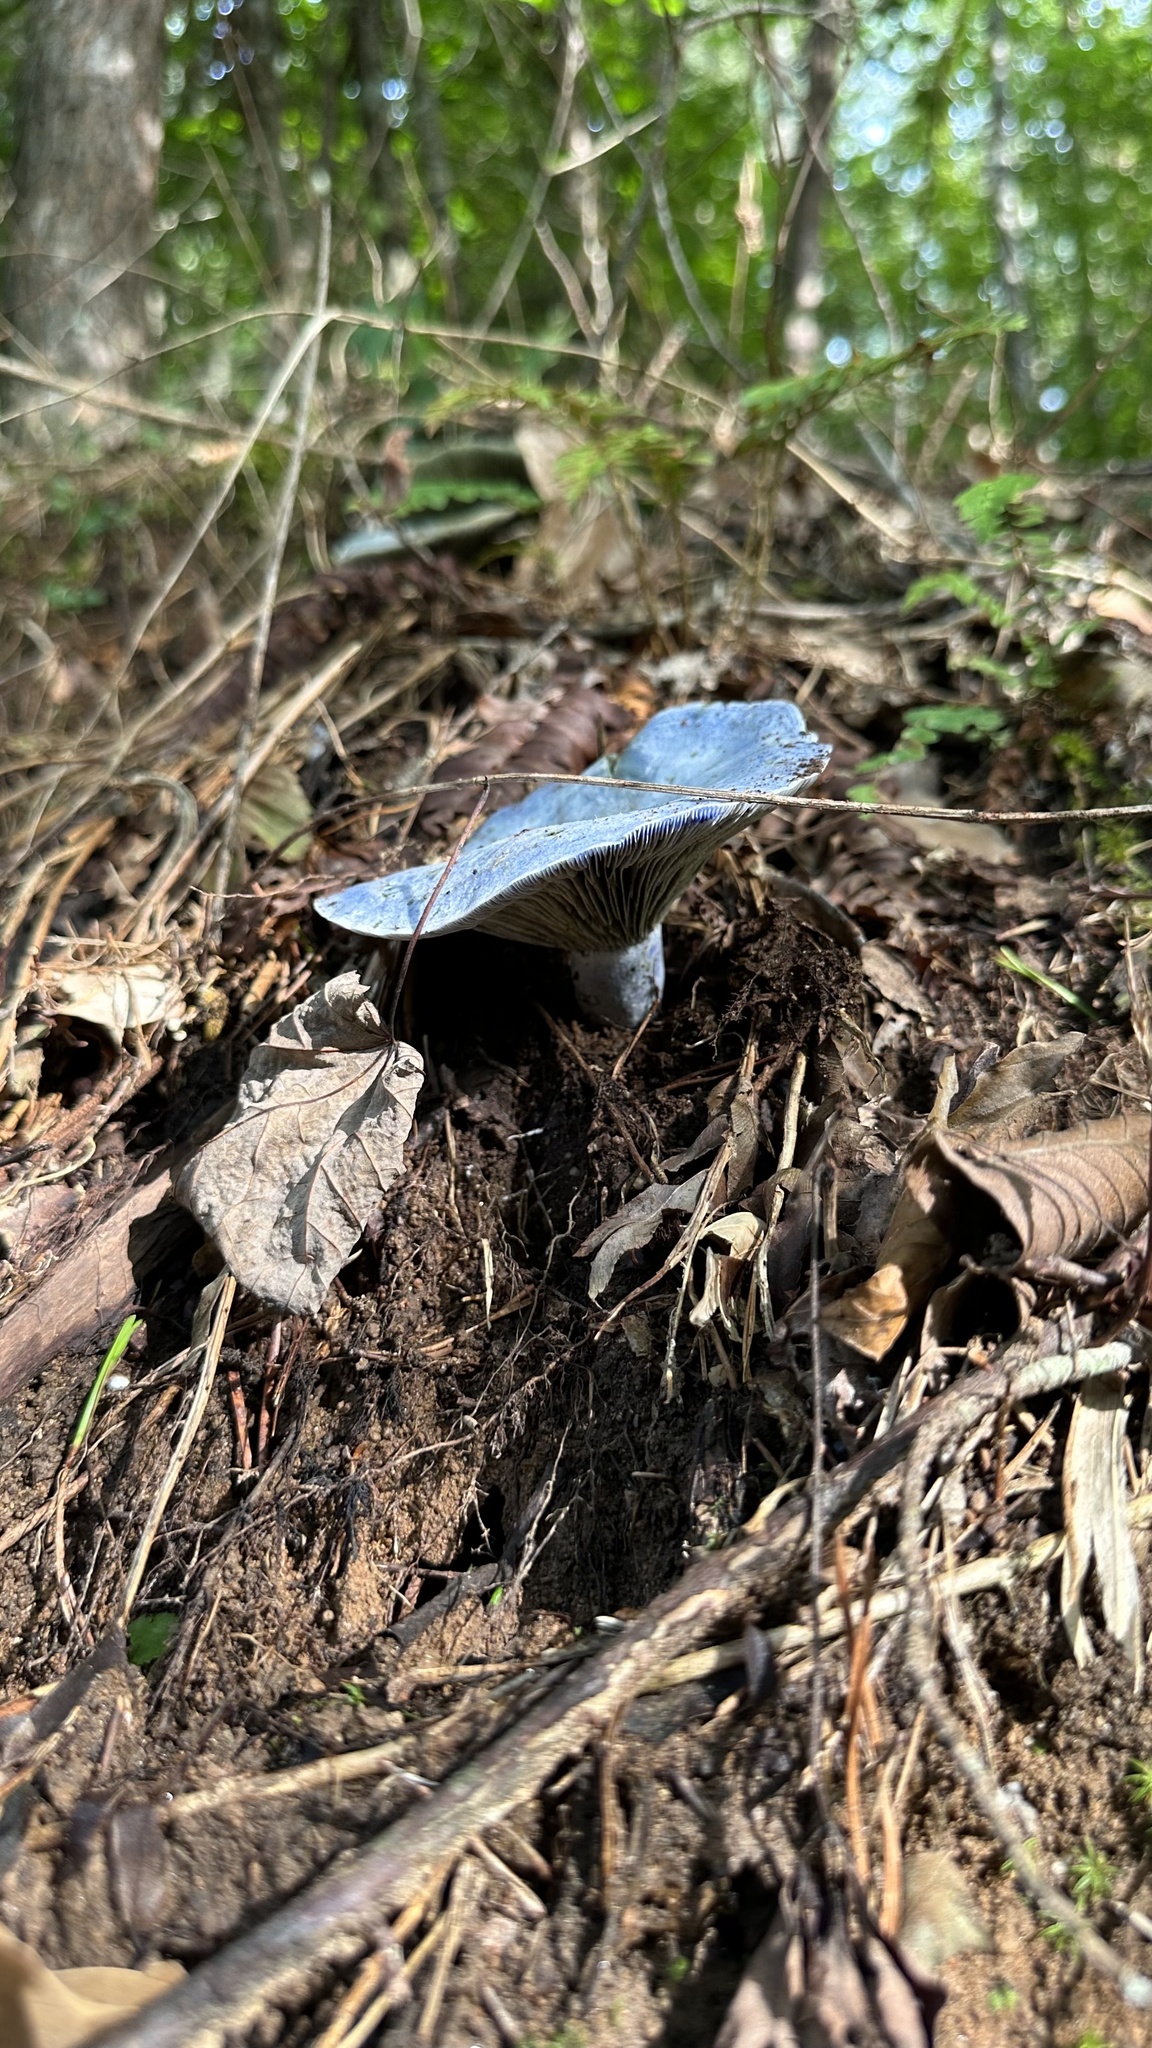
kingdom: Fungi
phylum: Basidiomycota
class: Agaricomycetes
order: Russulales
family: Russulaceae
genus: Lactarius
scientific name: Lactarius indigo
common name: Indigo milk cap
